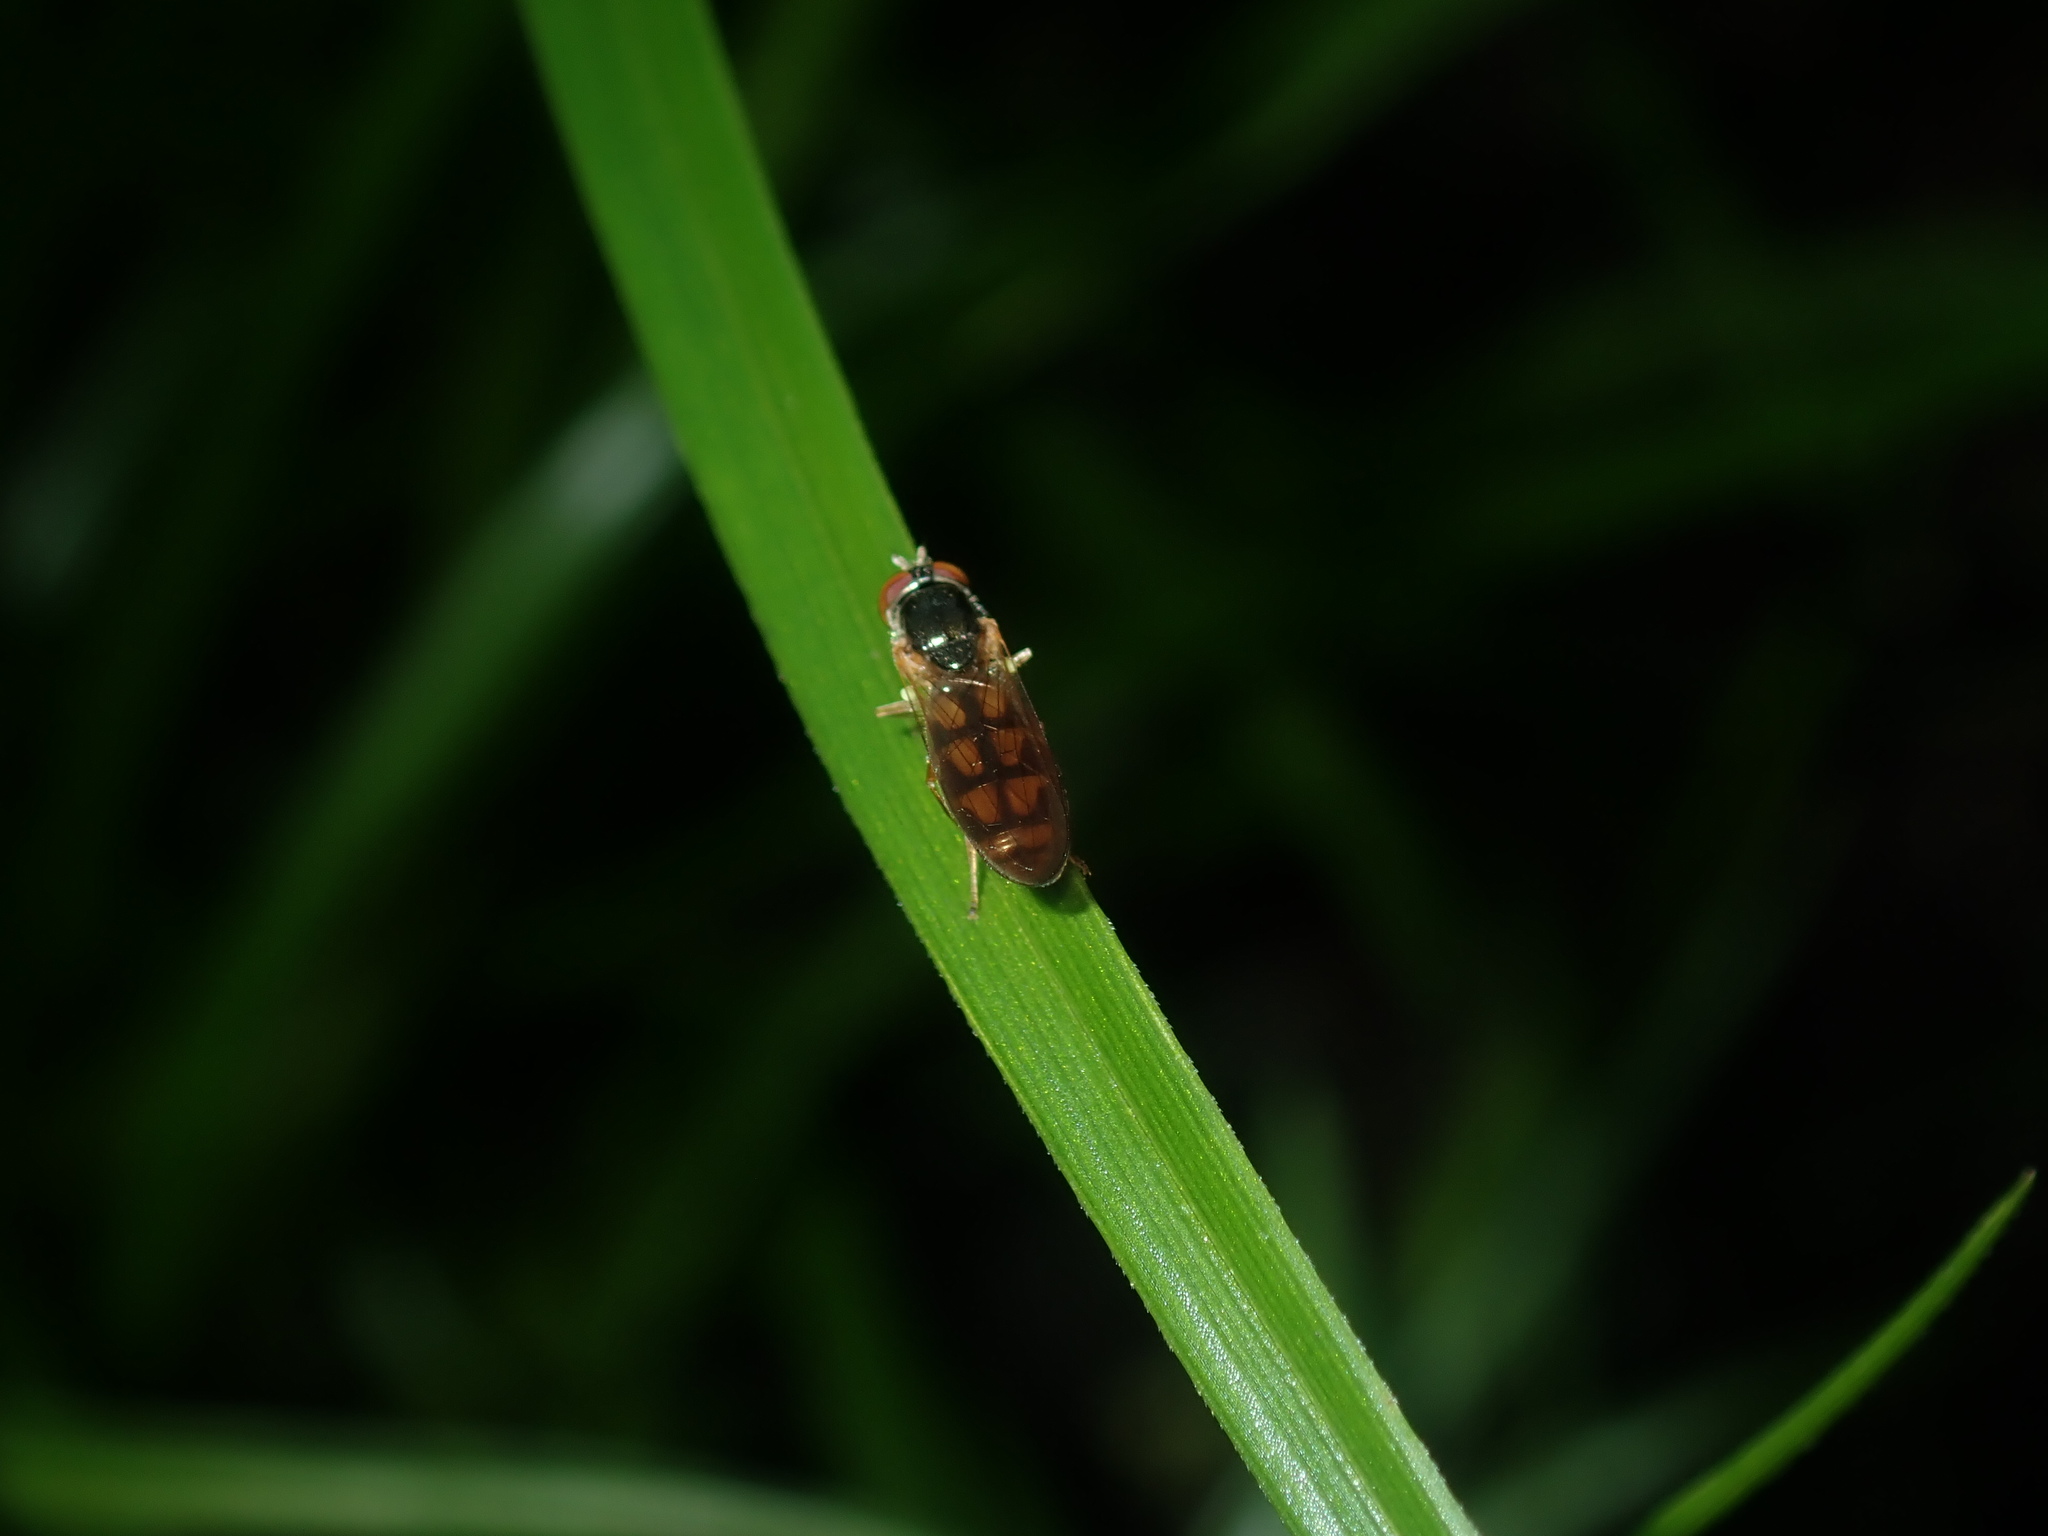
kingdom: Animalia
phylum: Arthropoda
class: Insecta
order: Diptera
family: Syrphidae
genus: Melanostoma
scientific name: Melanostoma apicale
